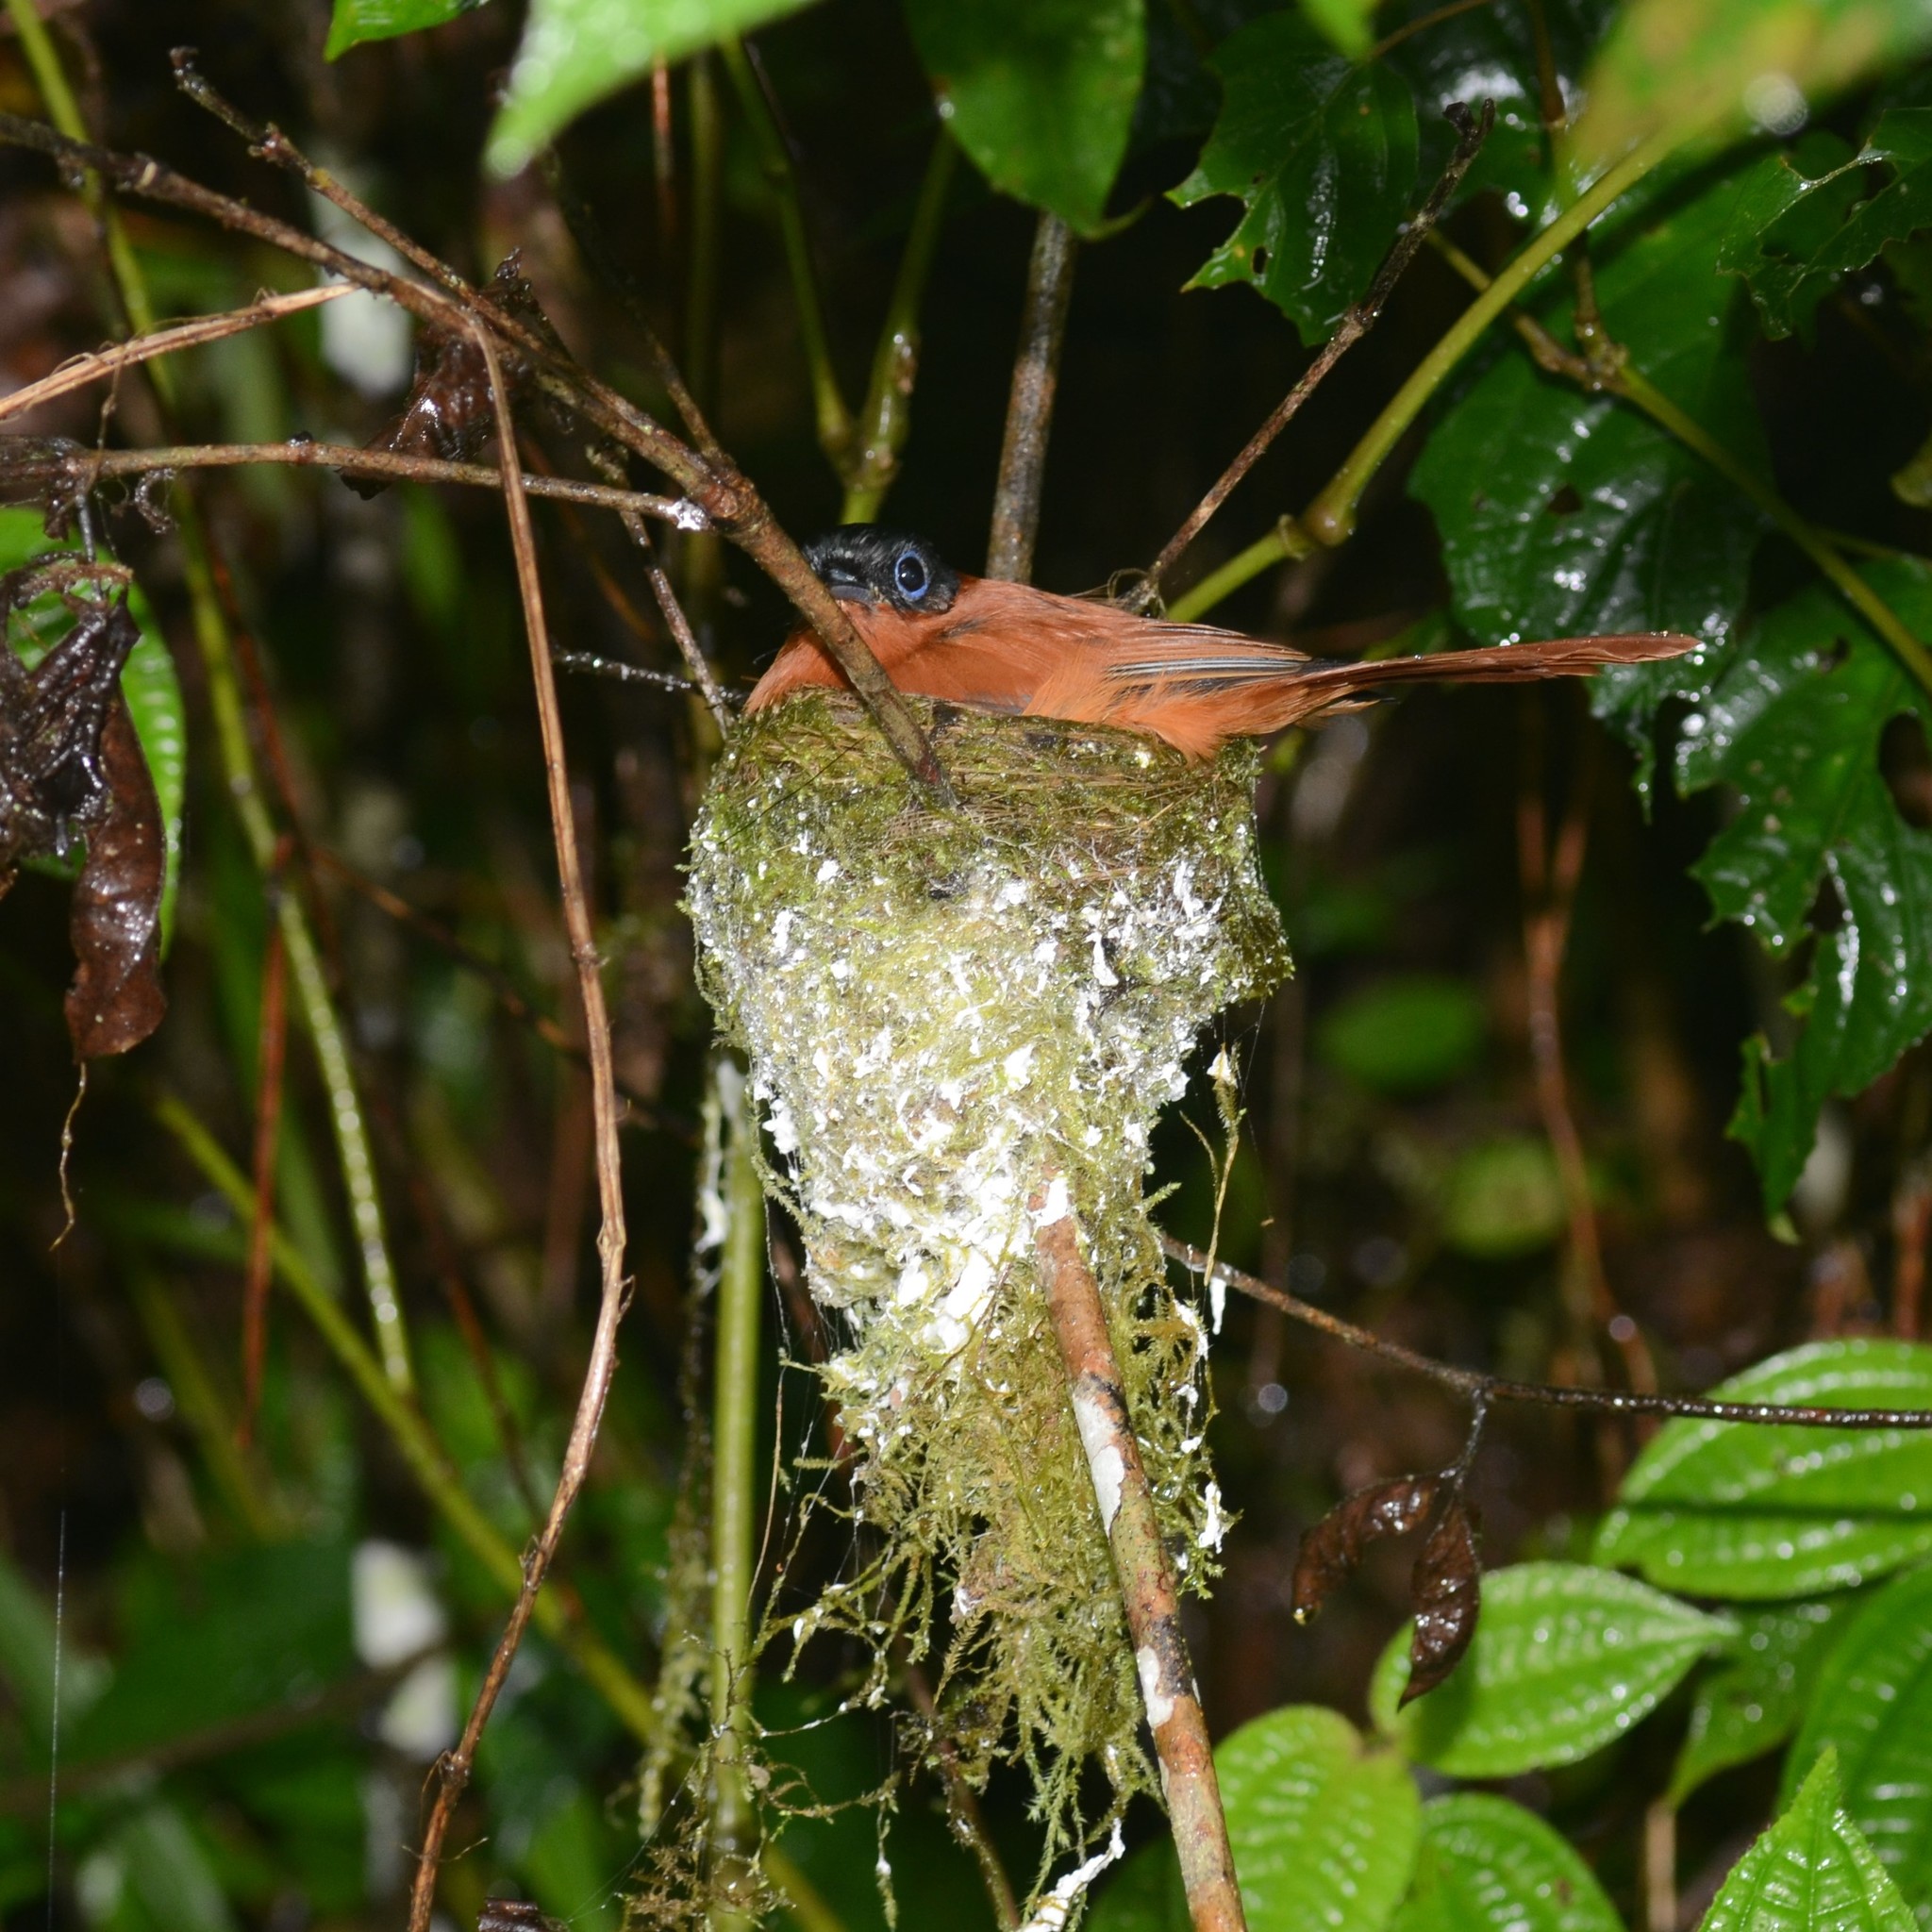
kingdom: Animalia
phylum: Chordata
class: Aves
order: Passeriformes
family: Monarchidae
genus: Terpsiphone
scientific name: Terpsiphone mutata
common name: Malagasy paradise flycatcher
